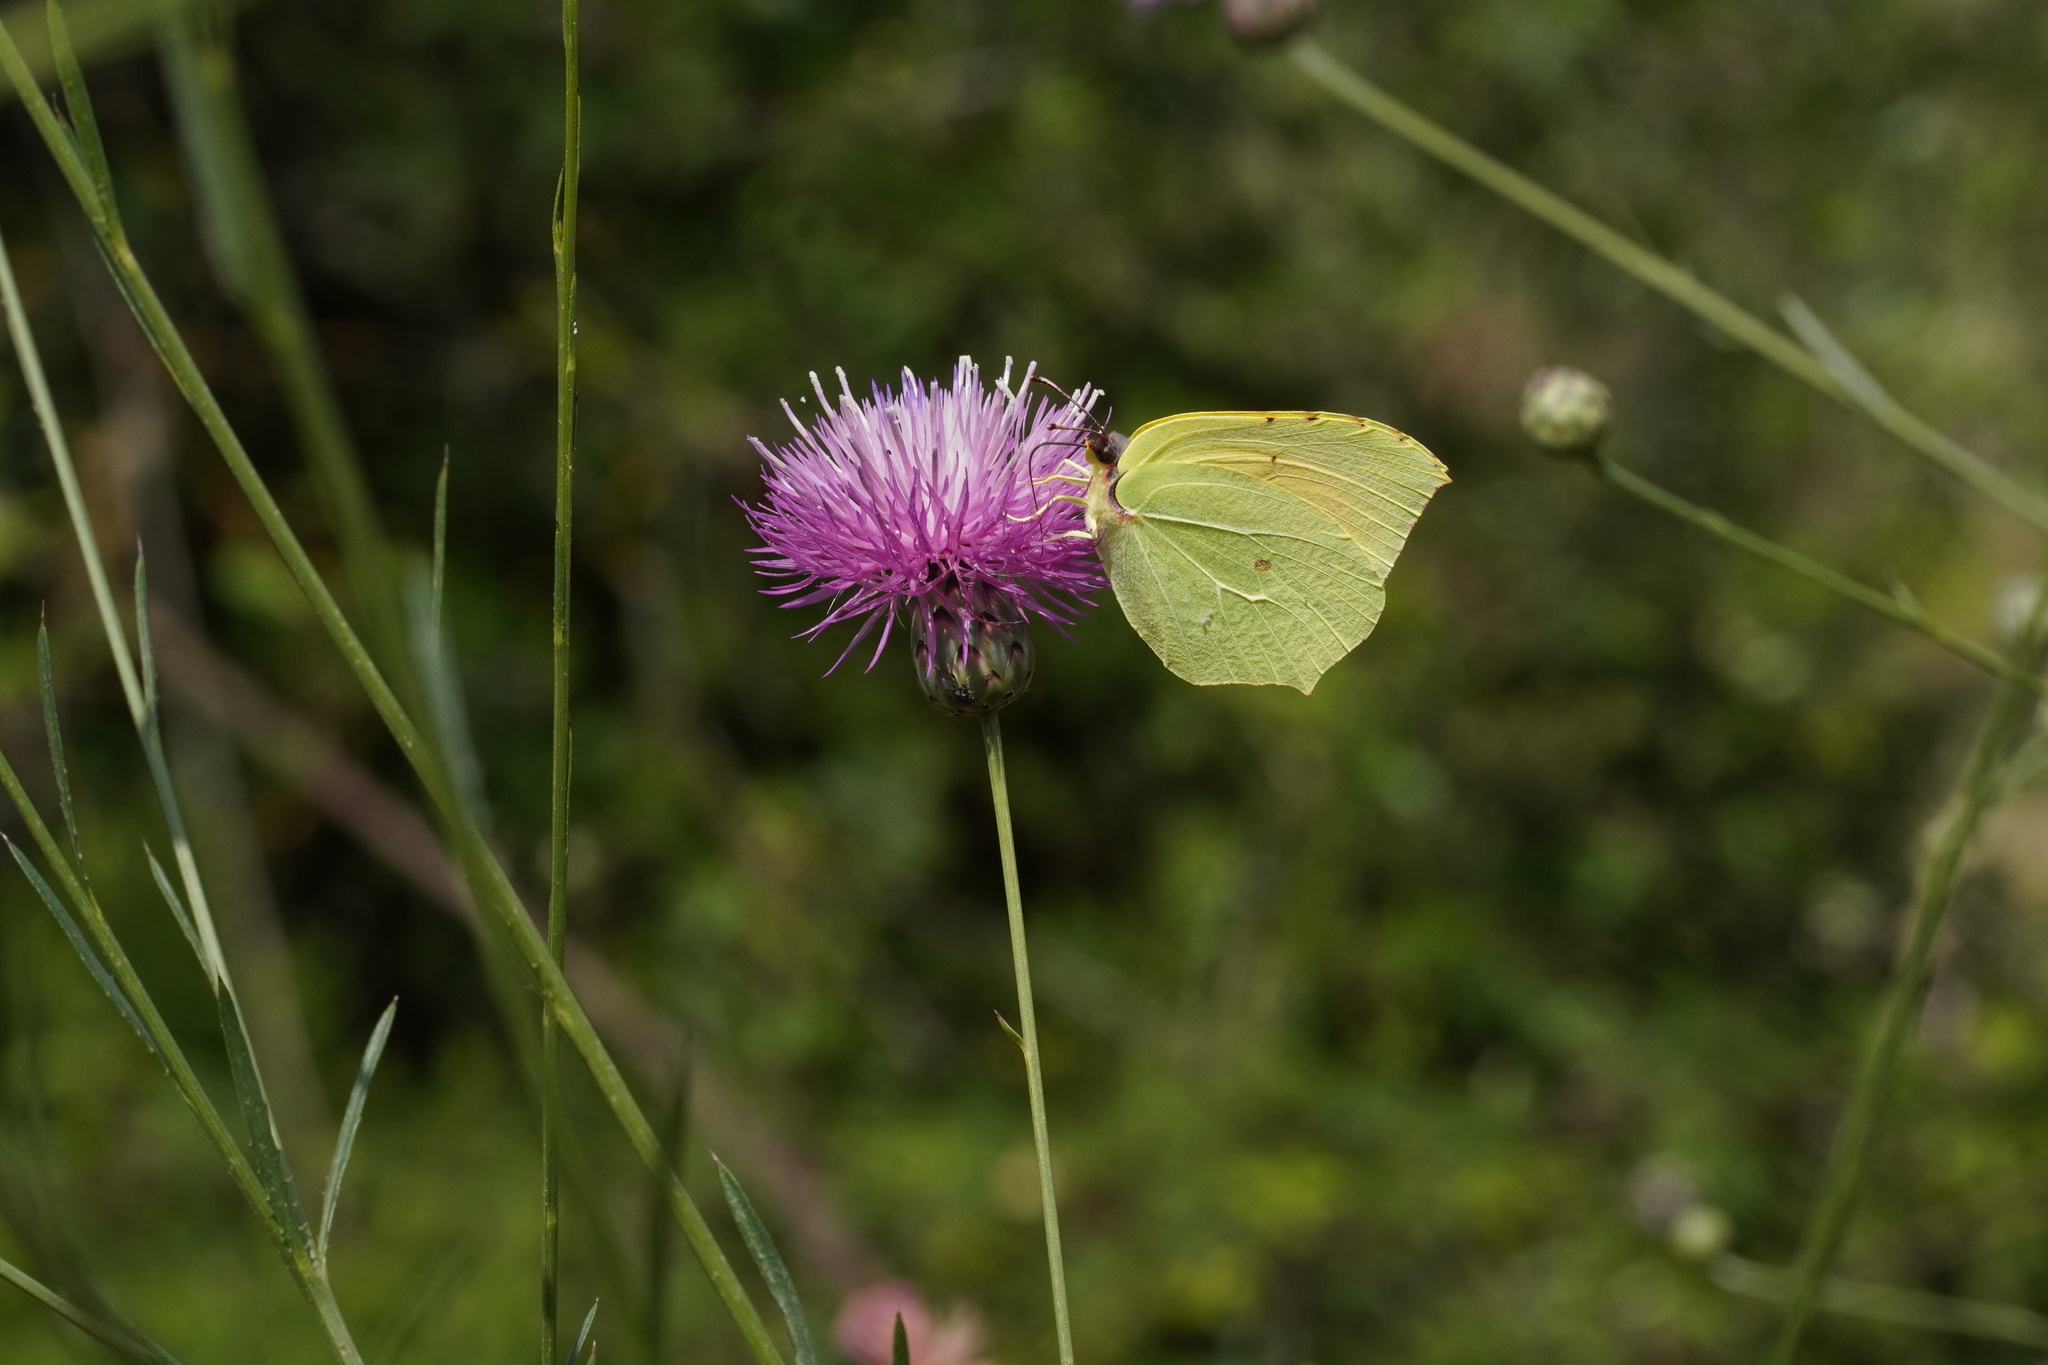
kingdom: Animalia
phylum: Arthropoda
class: Insecta
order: Lepidoptera
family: Pieridae
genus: Gonepteryx
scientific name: Gonepteryx cleopatra
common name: Cleopatra
